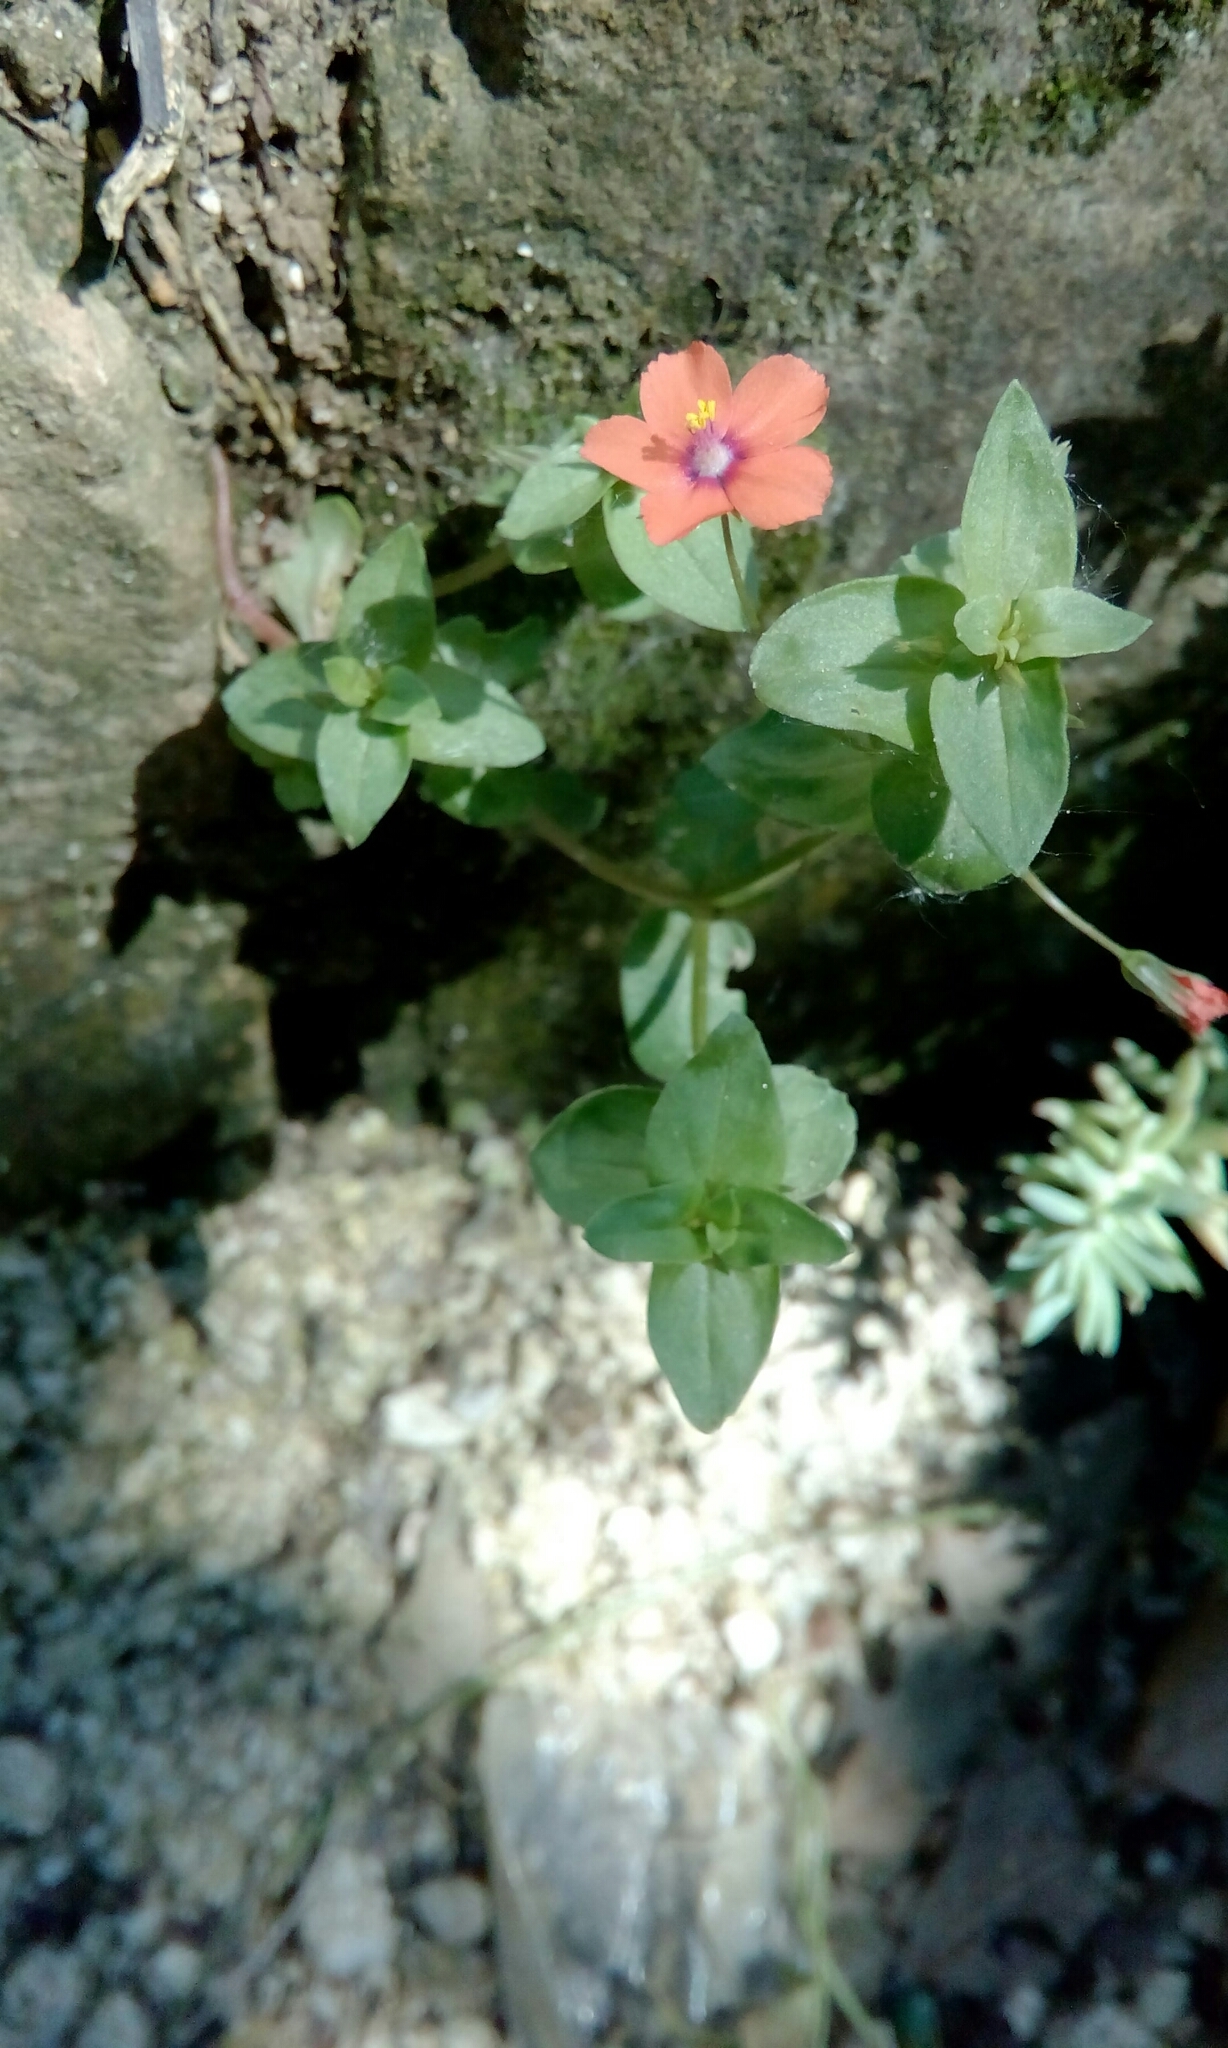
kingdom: Plantae
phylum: Tracheophyta
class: Magnoliopsida
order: Ericales
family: Primulaceae
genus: Lysimachia
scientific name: Lysimachia arvensis
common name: Scarlet pimpernel
